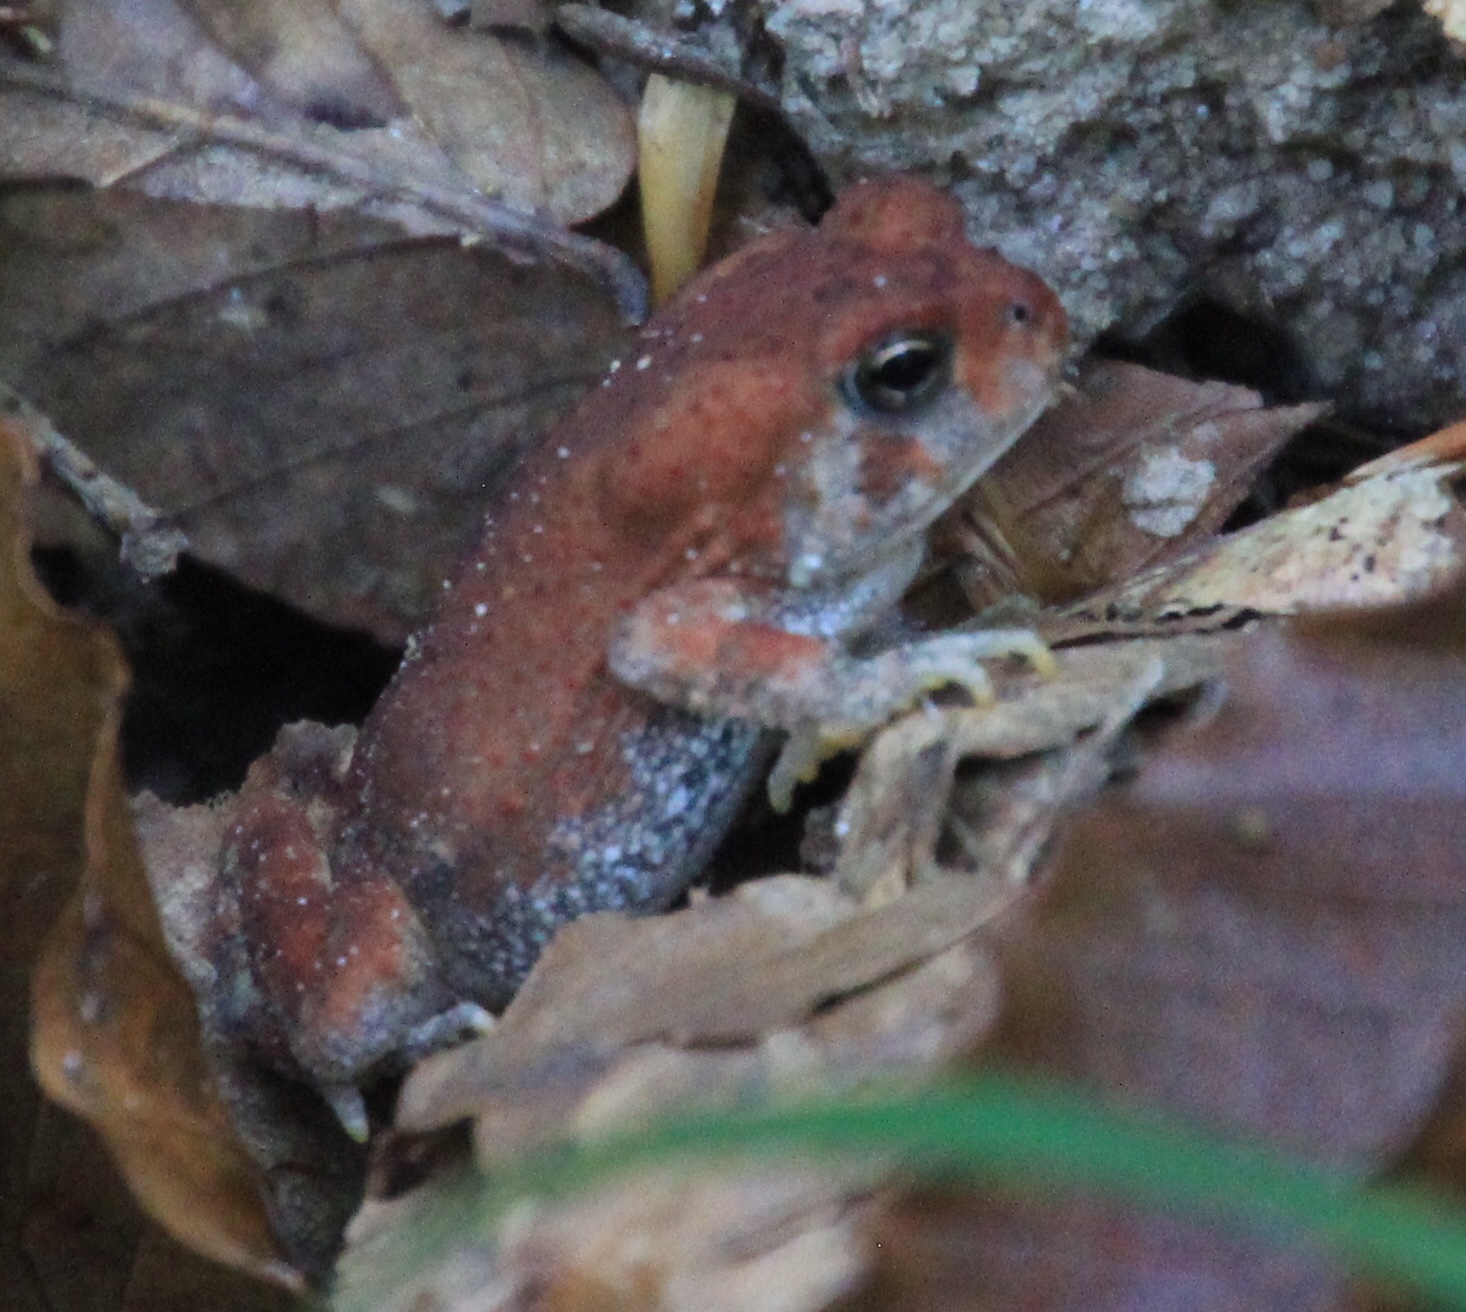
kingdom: Animalia
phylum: Chordata
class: Amphibia
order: Anura
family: Bufonidae
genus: Anaxyrus
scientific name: Anaxyrus fowleri
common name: Fowler's toad
